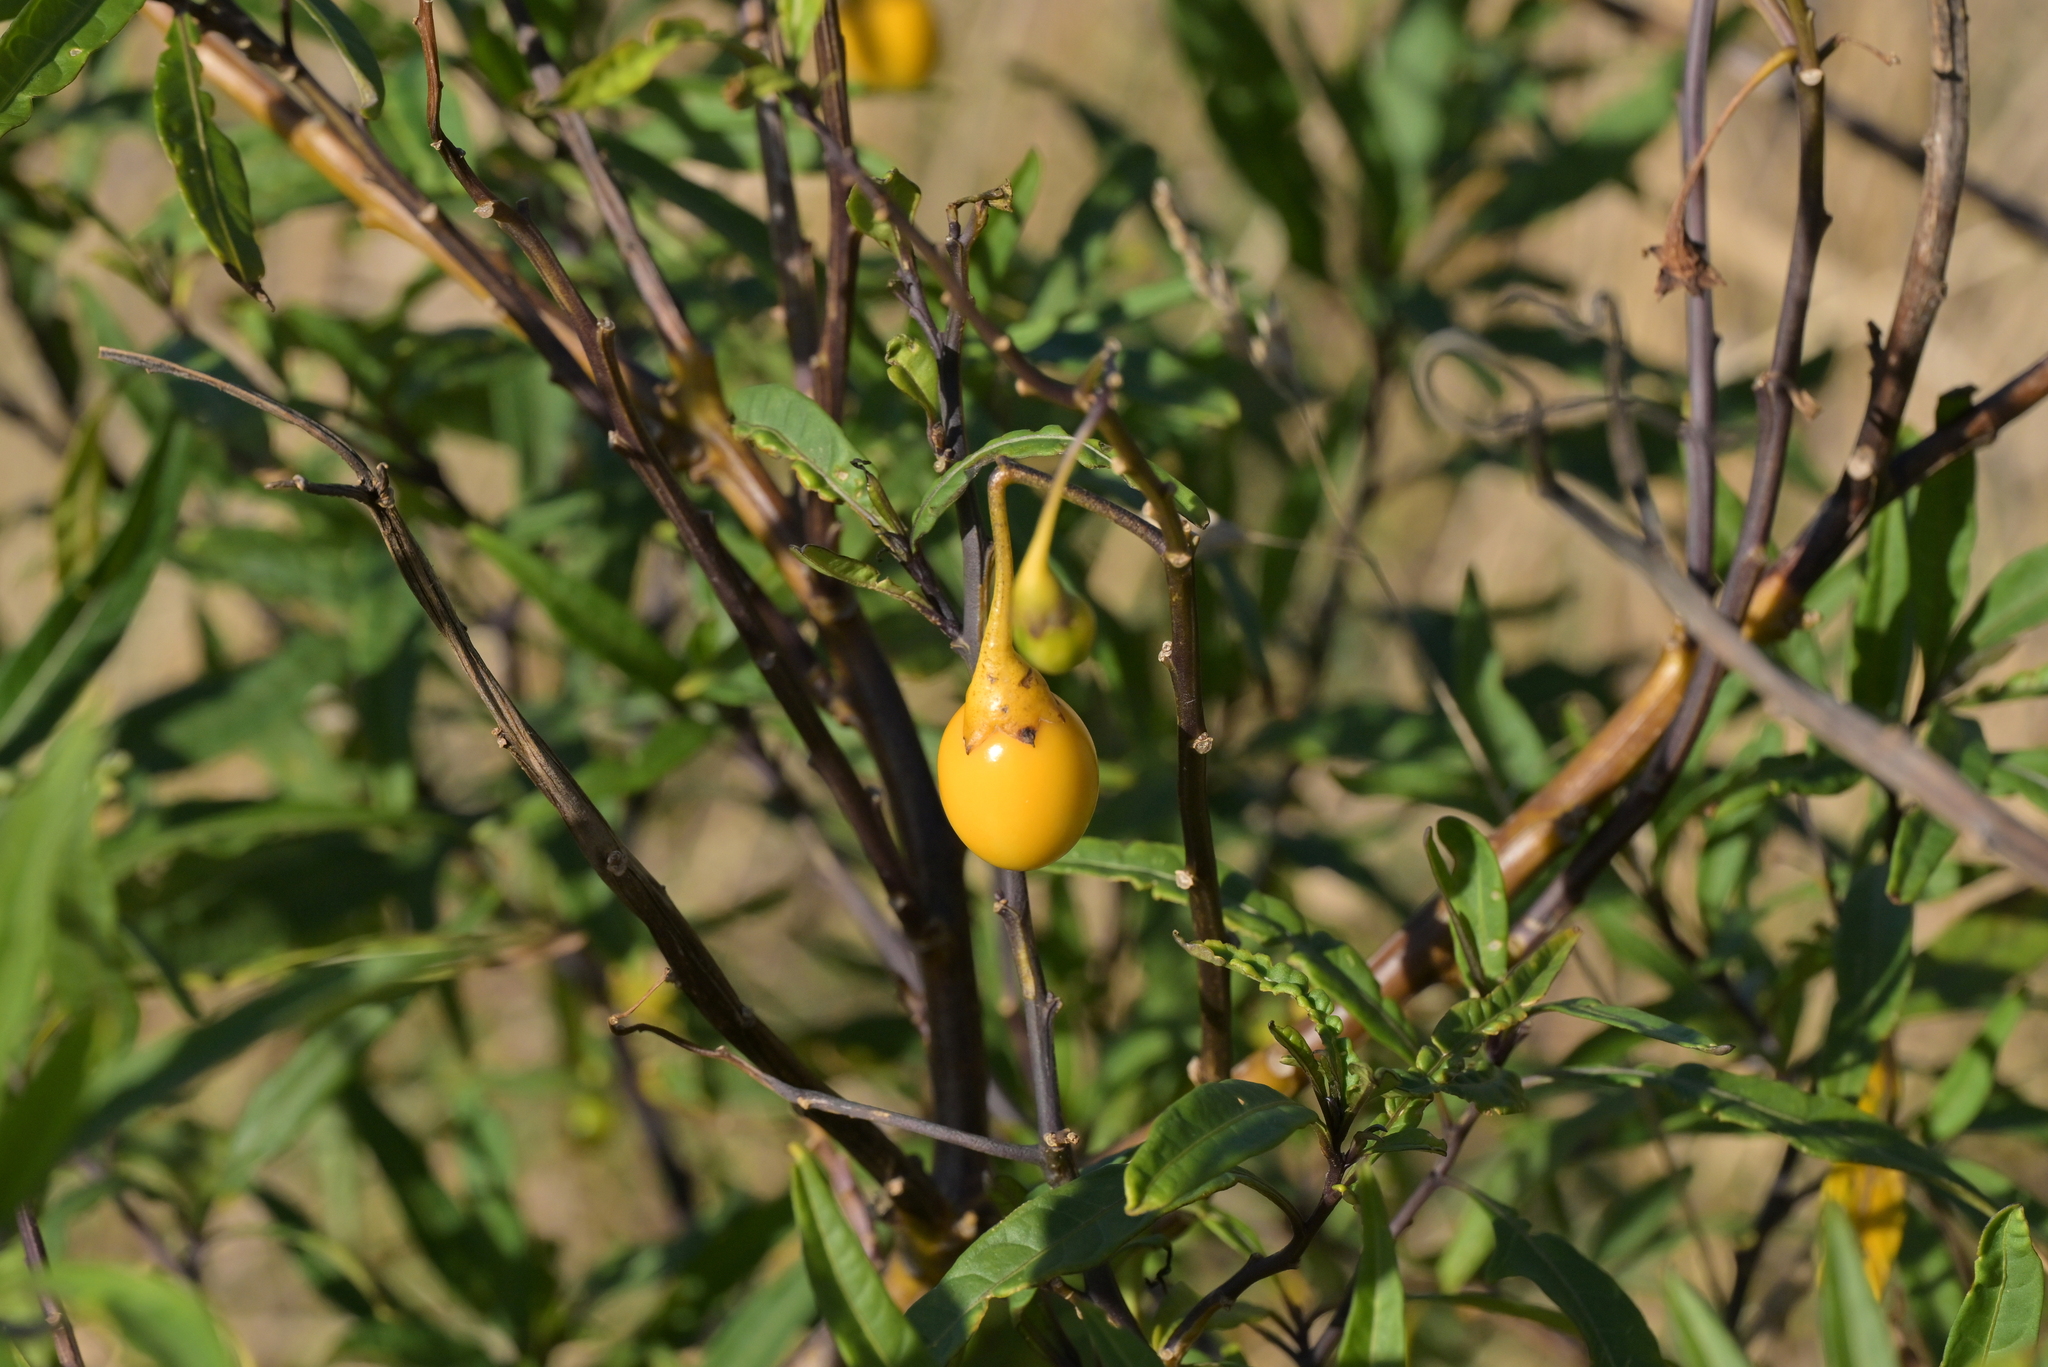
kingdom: Plantae
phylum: Tracheophyta
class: Magnoliopsida
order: Solanales
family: Solanaceae
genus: Solanum
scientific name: Solanum laciniatum
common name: Kangaroo-apple
